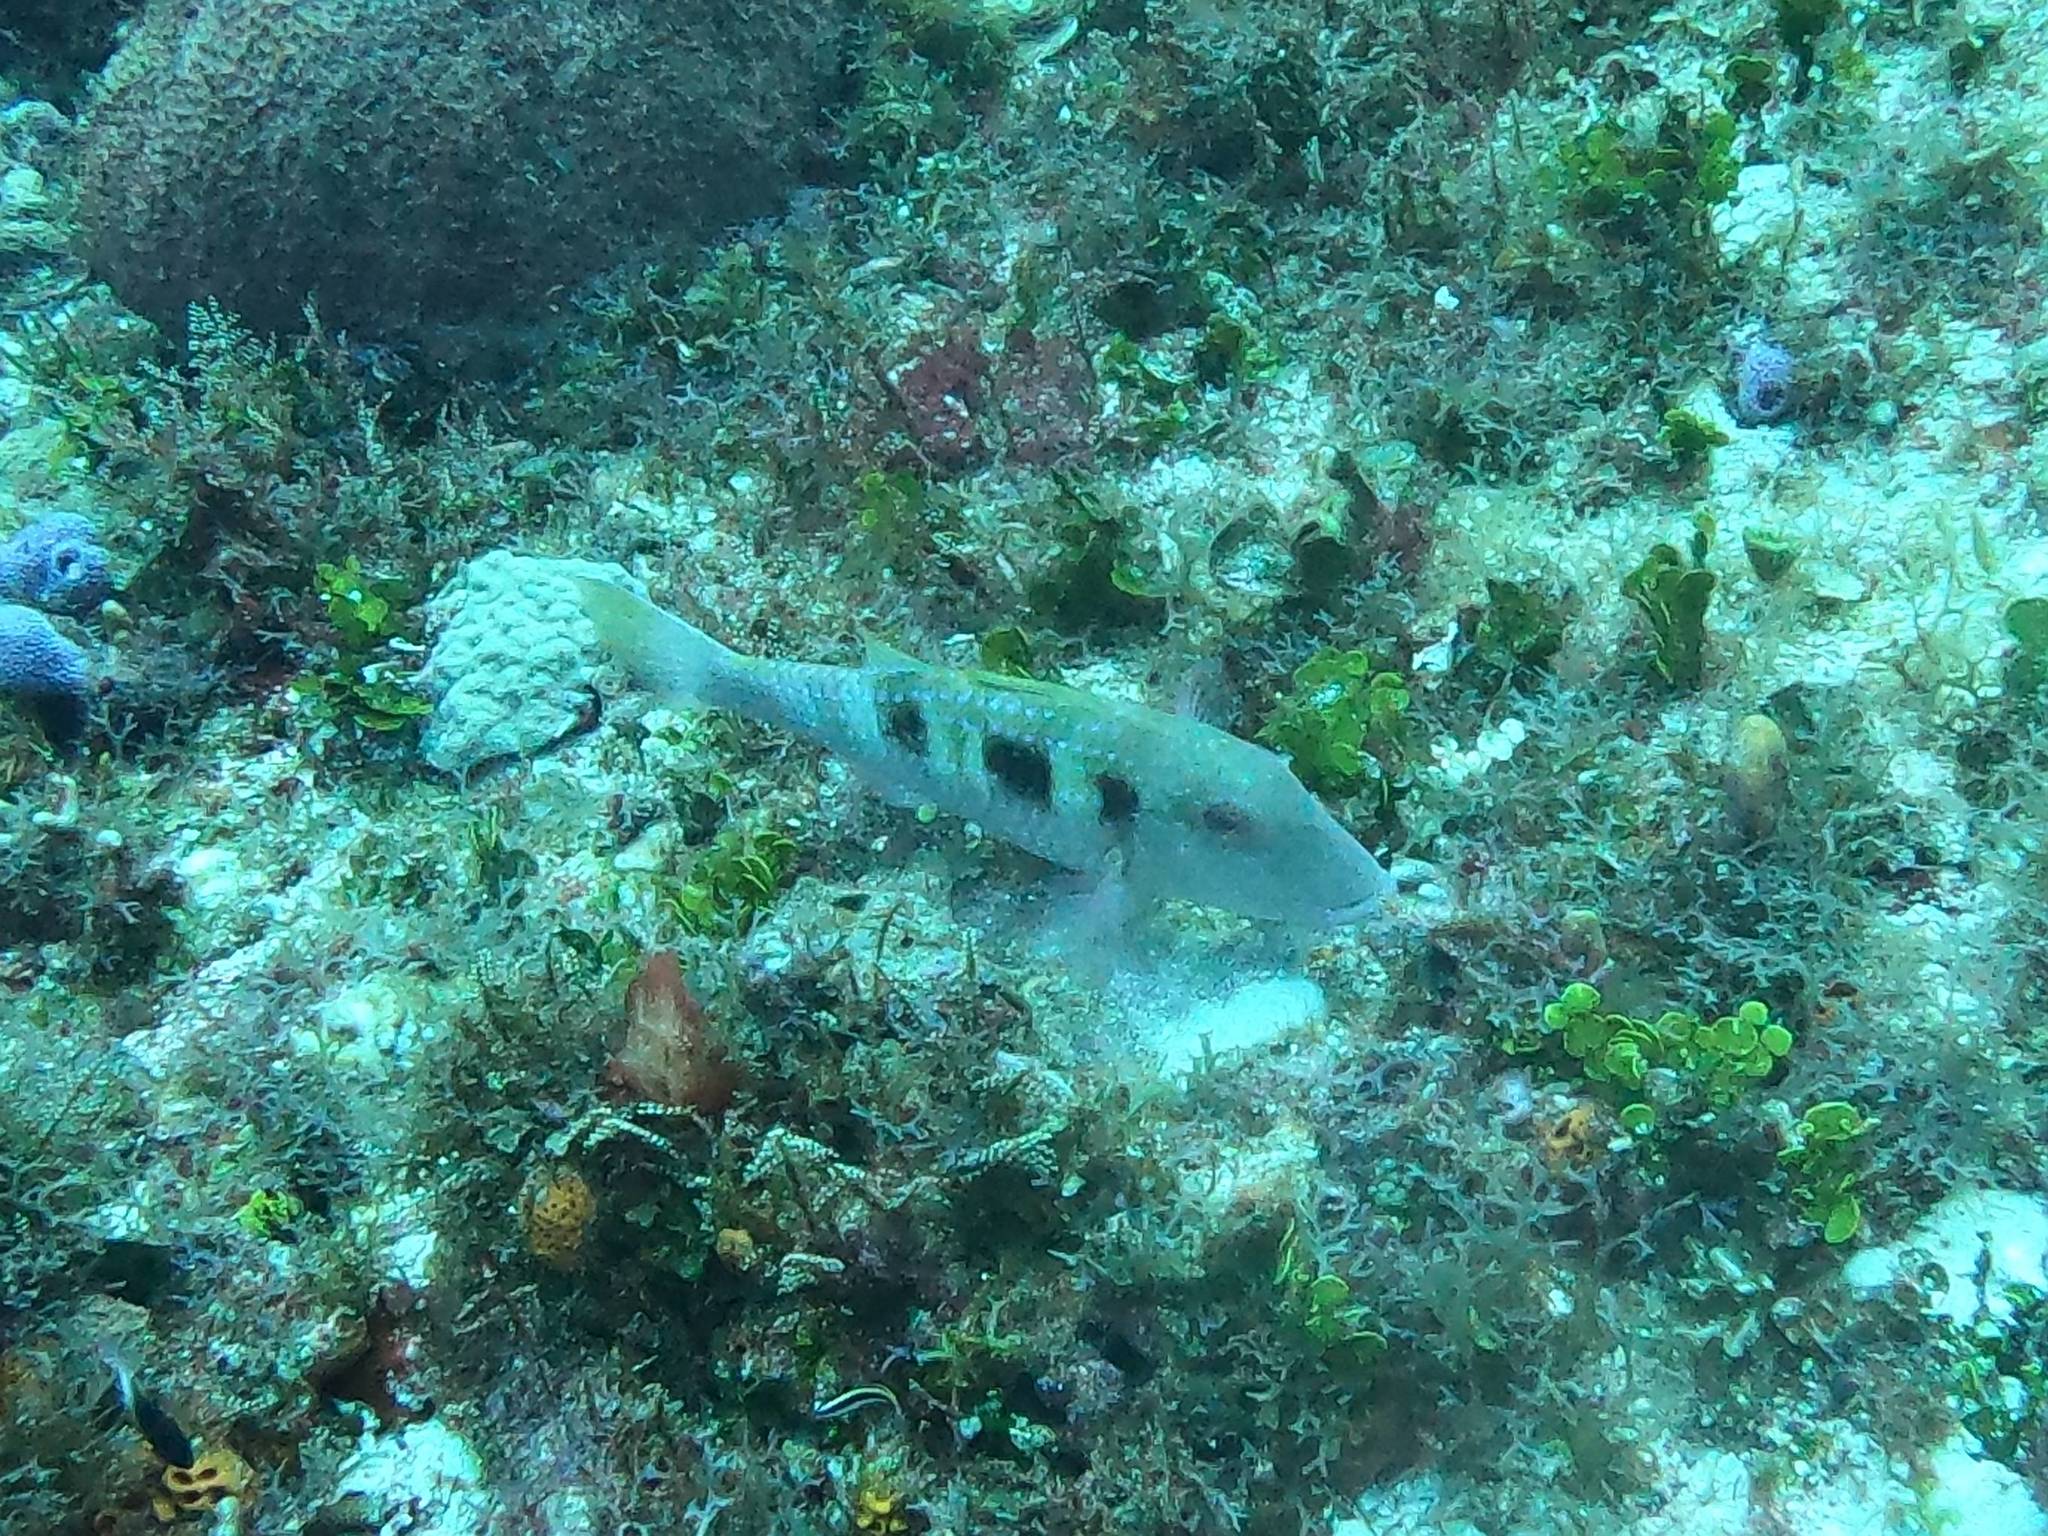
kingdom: Animalia
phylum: Chordata
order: Perciformes
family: Mullidae
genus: Pseudupeneus
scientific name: Pseudupeneus maculatus
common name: Spotted goatfish
